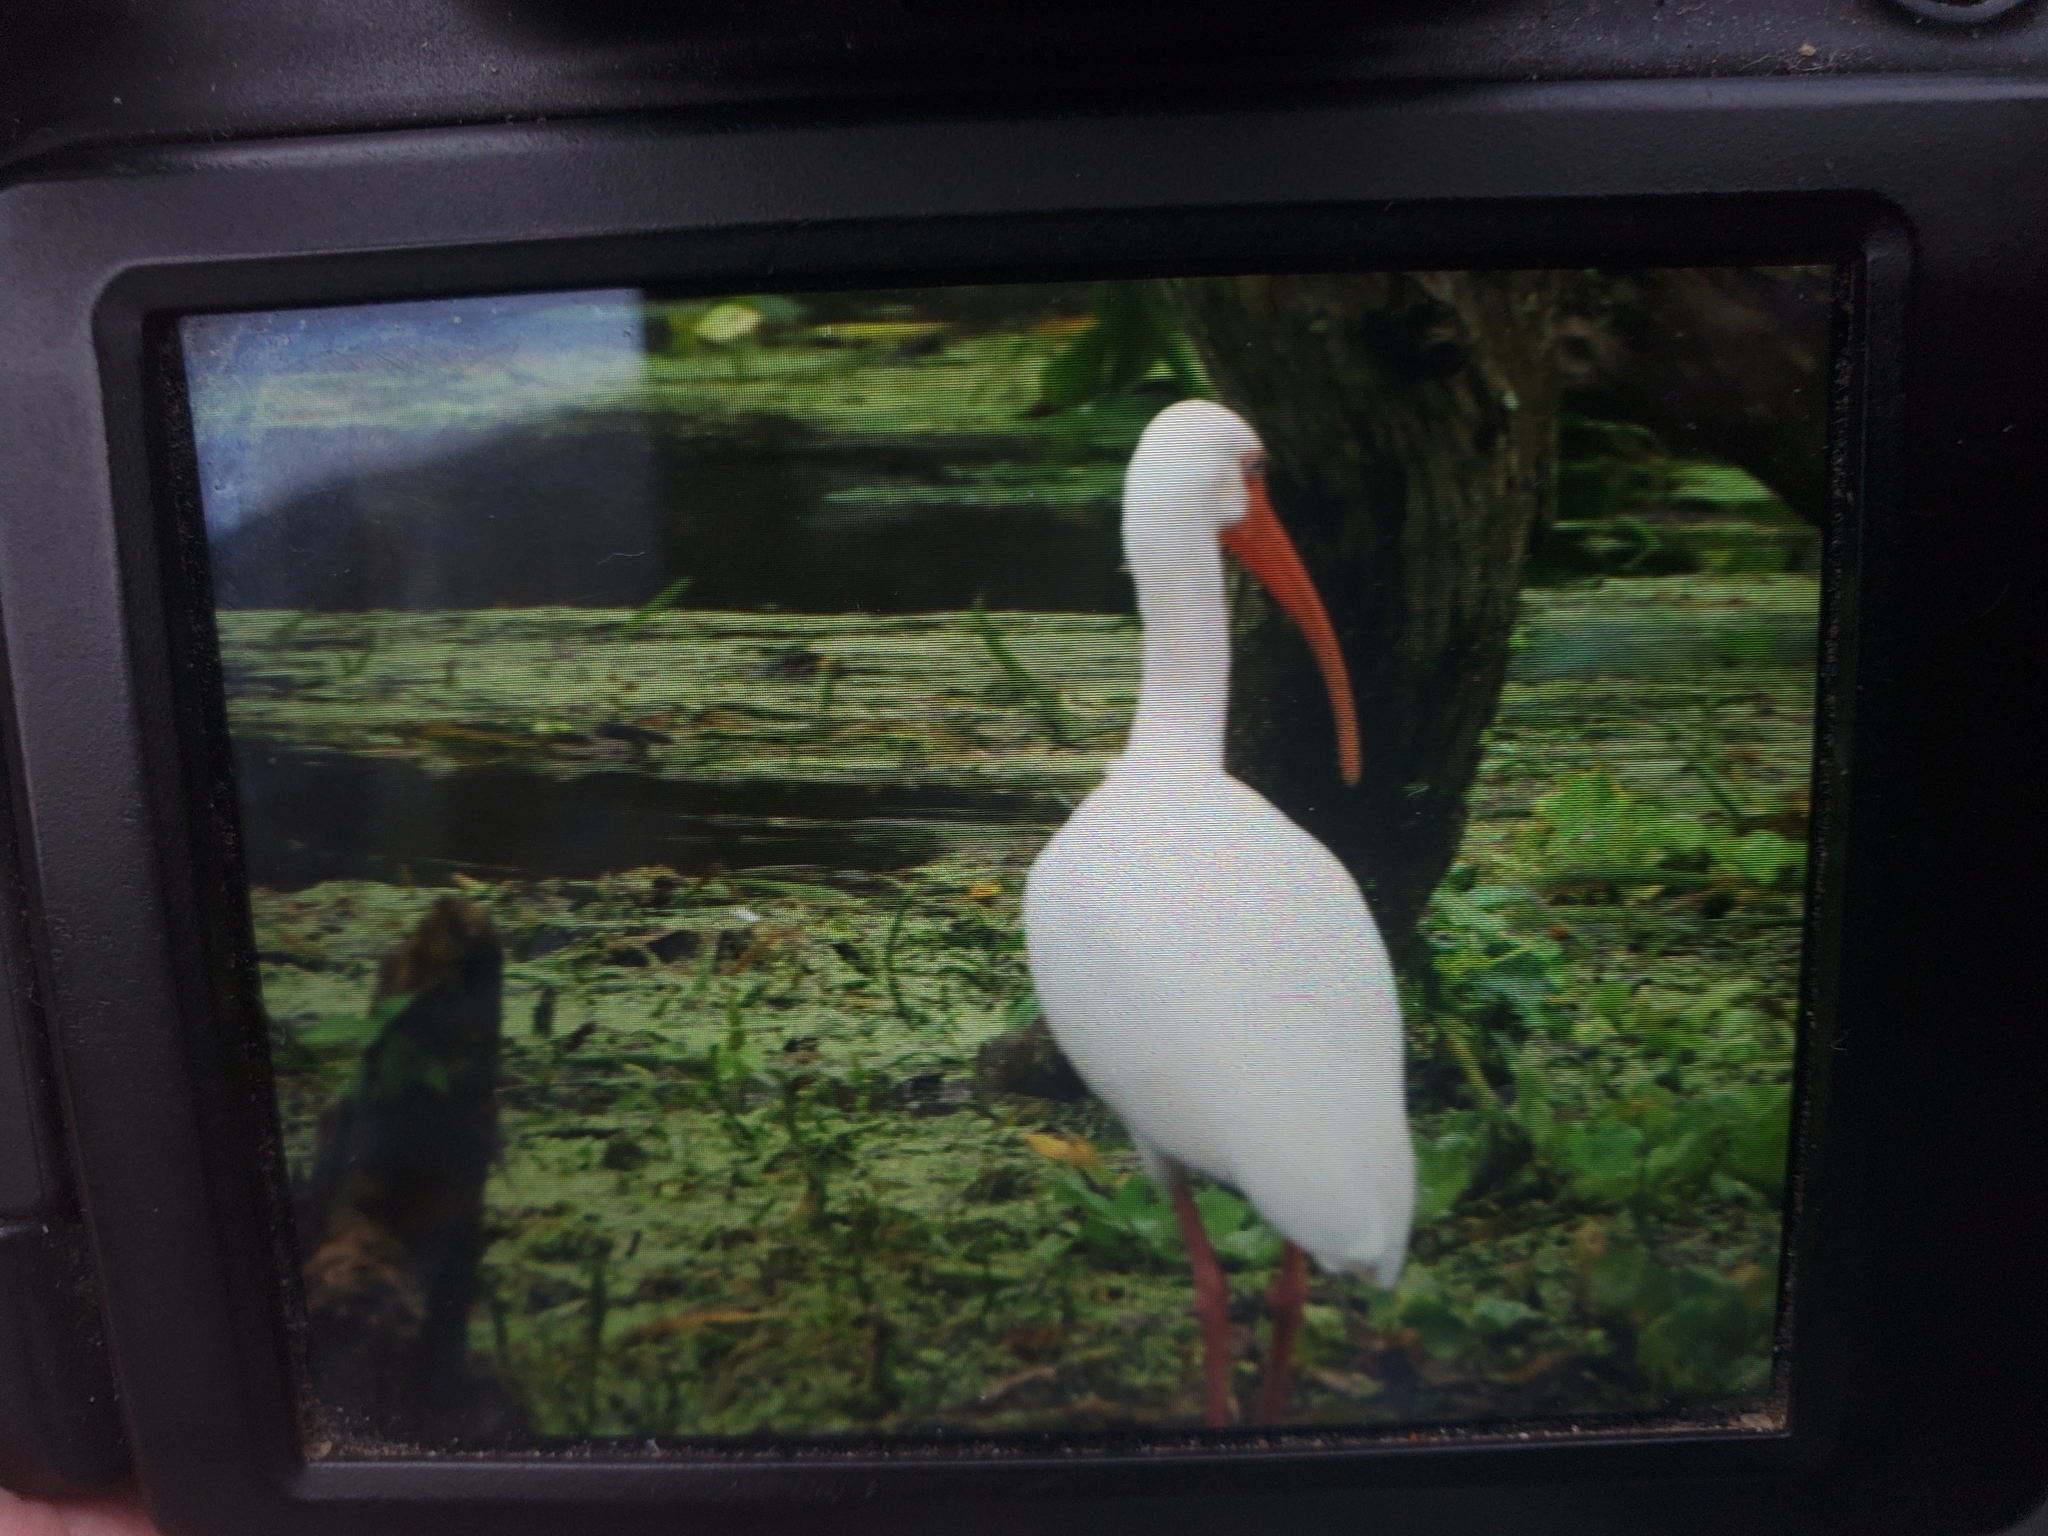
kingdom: Animalia
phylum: Chordata
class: Aves
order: Pelecaniformes
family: Threskiornithidae
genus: Eudocimus
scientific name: Eudocimus albus
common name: White ibis
